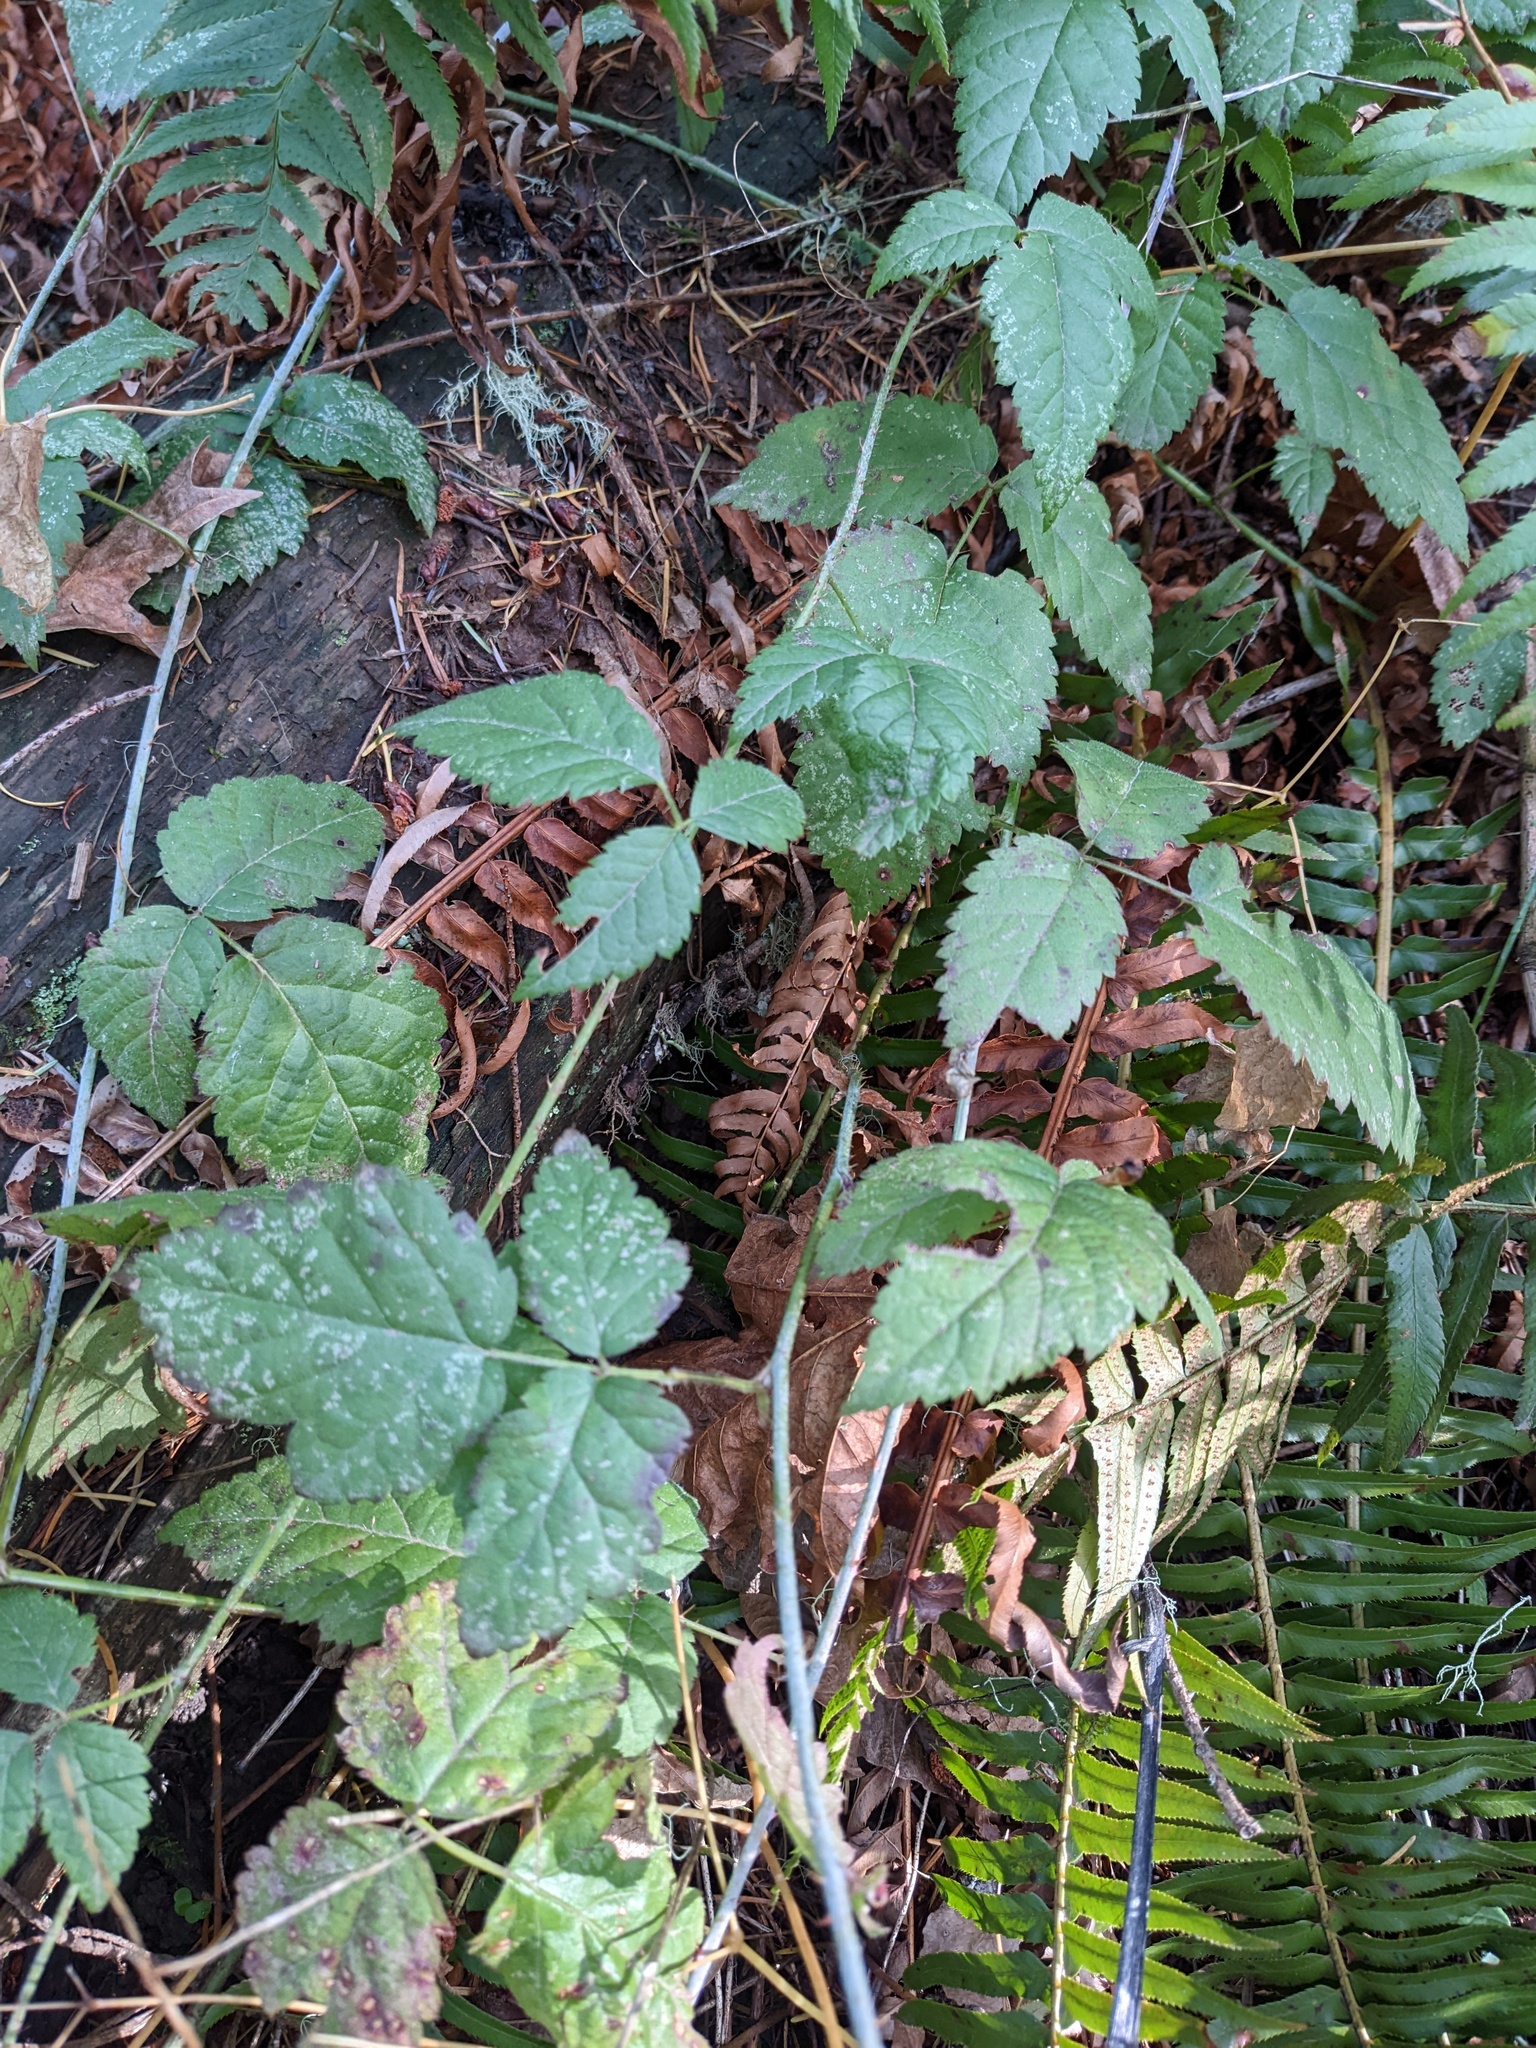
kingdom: Plantae
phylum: Tracheophyta
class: Magnoliopsida
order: Rosales
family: Rosaceae
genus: Rubus
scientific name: Rubus ursinus
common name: Pacific blackberry
